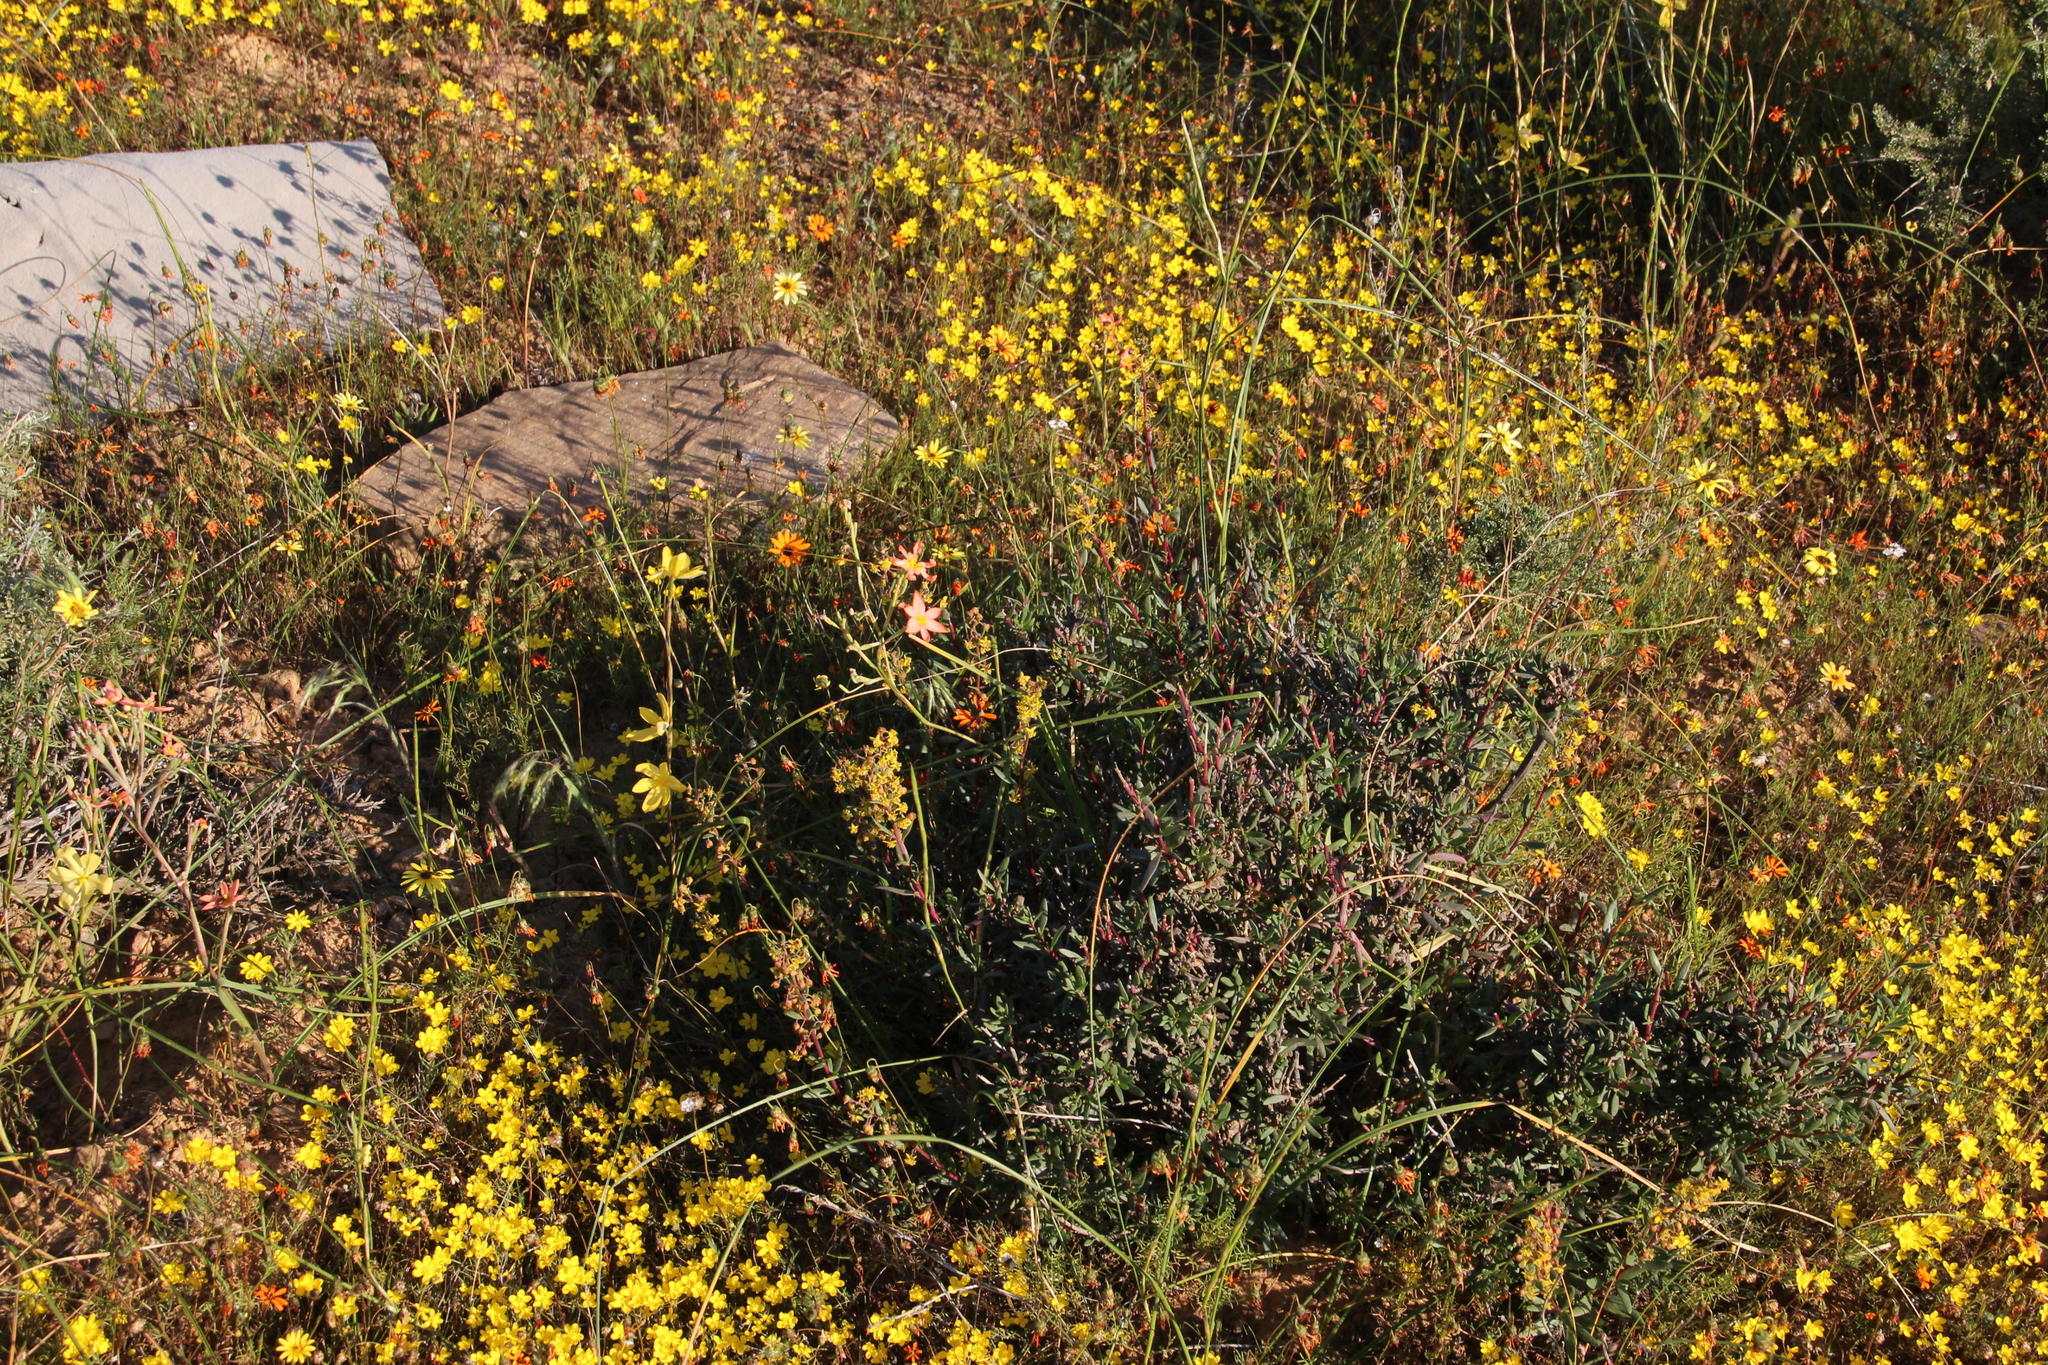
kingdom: Plantae
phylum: Tracheophyta
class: Magnoliopsida
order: Caryophyllales
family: Aizoaceae
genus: Tetragonia
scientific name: Tetragonia fruticosa
